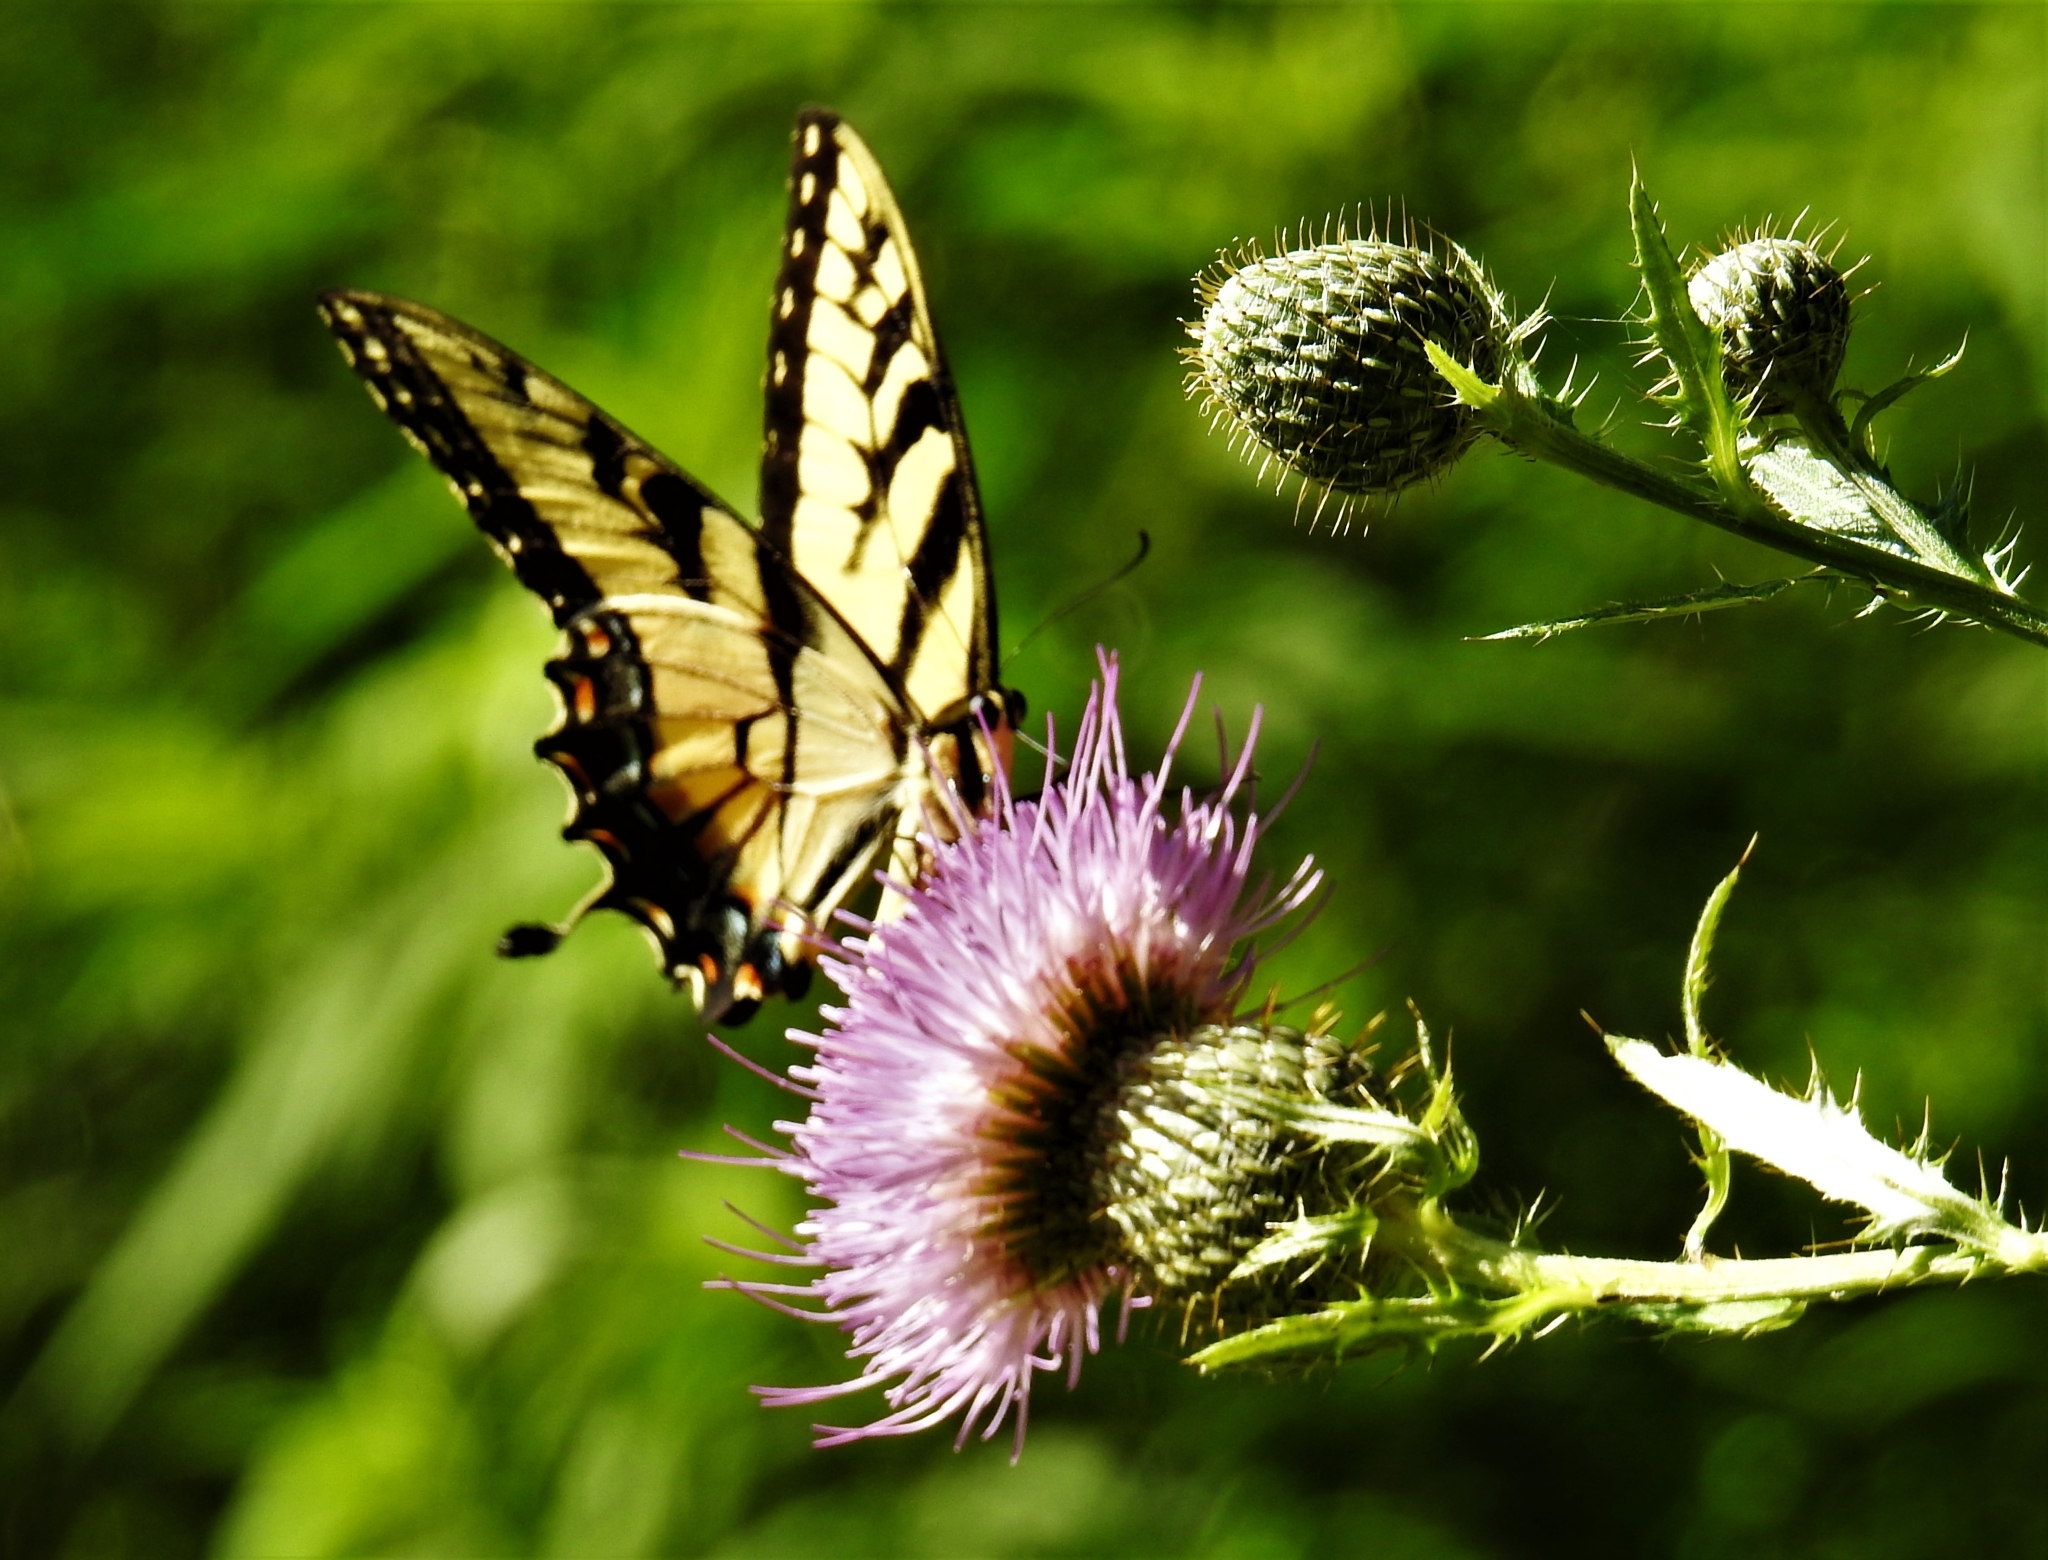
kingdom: Animalia
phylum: Arthropoda
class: Insecta
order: Lepidoptera
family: Papilionidae
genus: Papilio
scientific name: Papilio glaucus
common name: Tiger swallowtail
